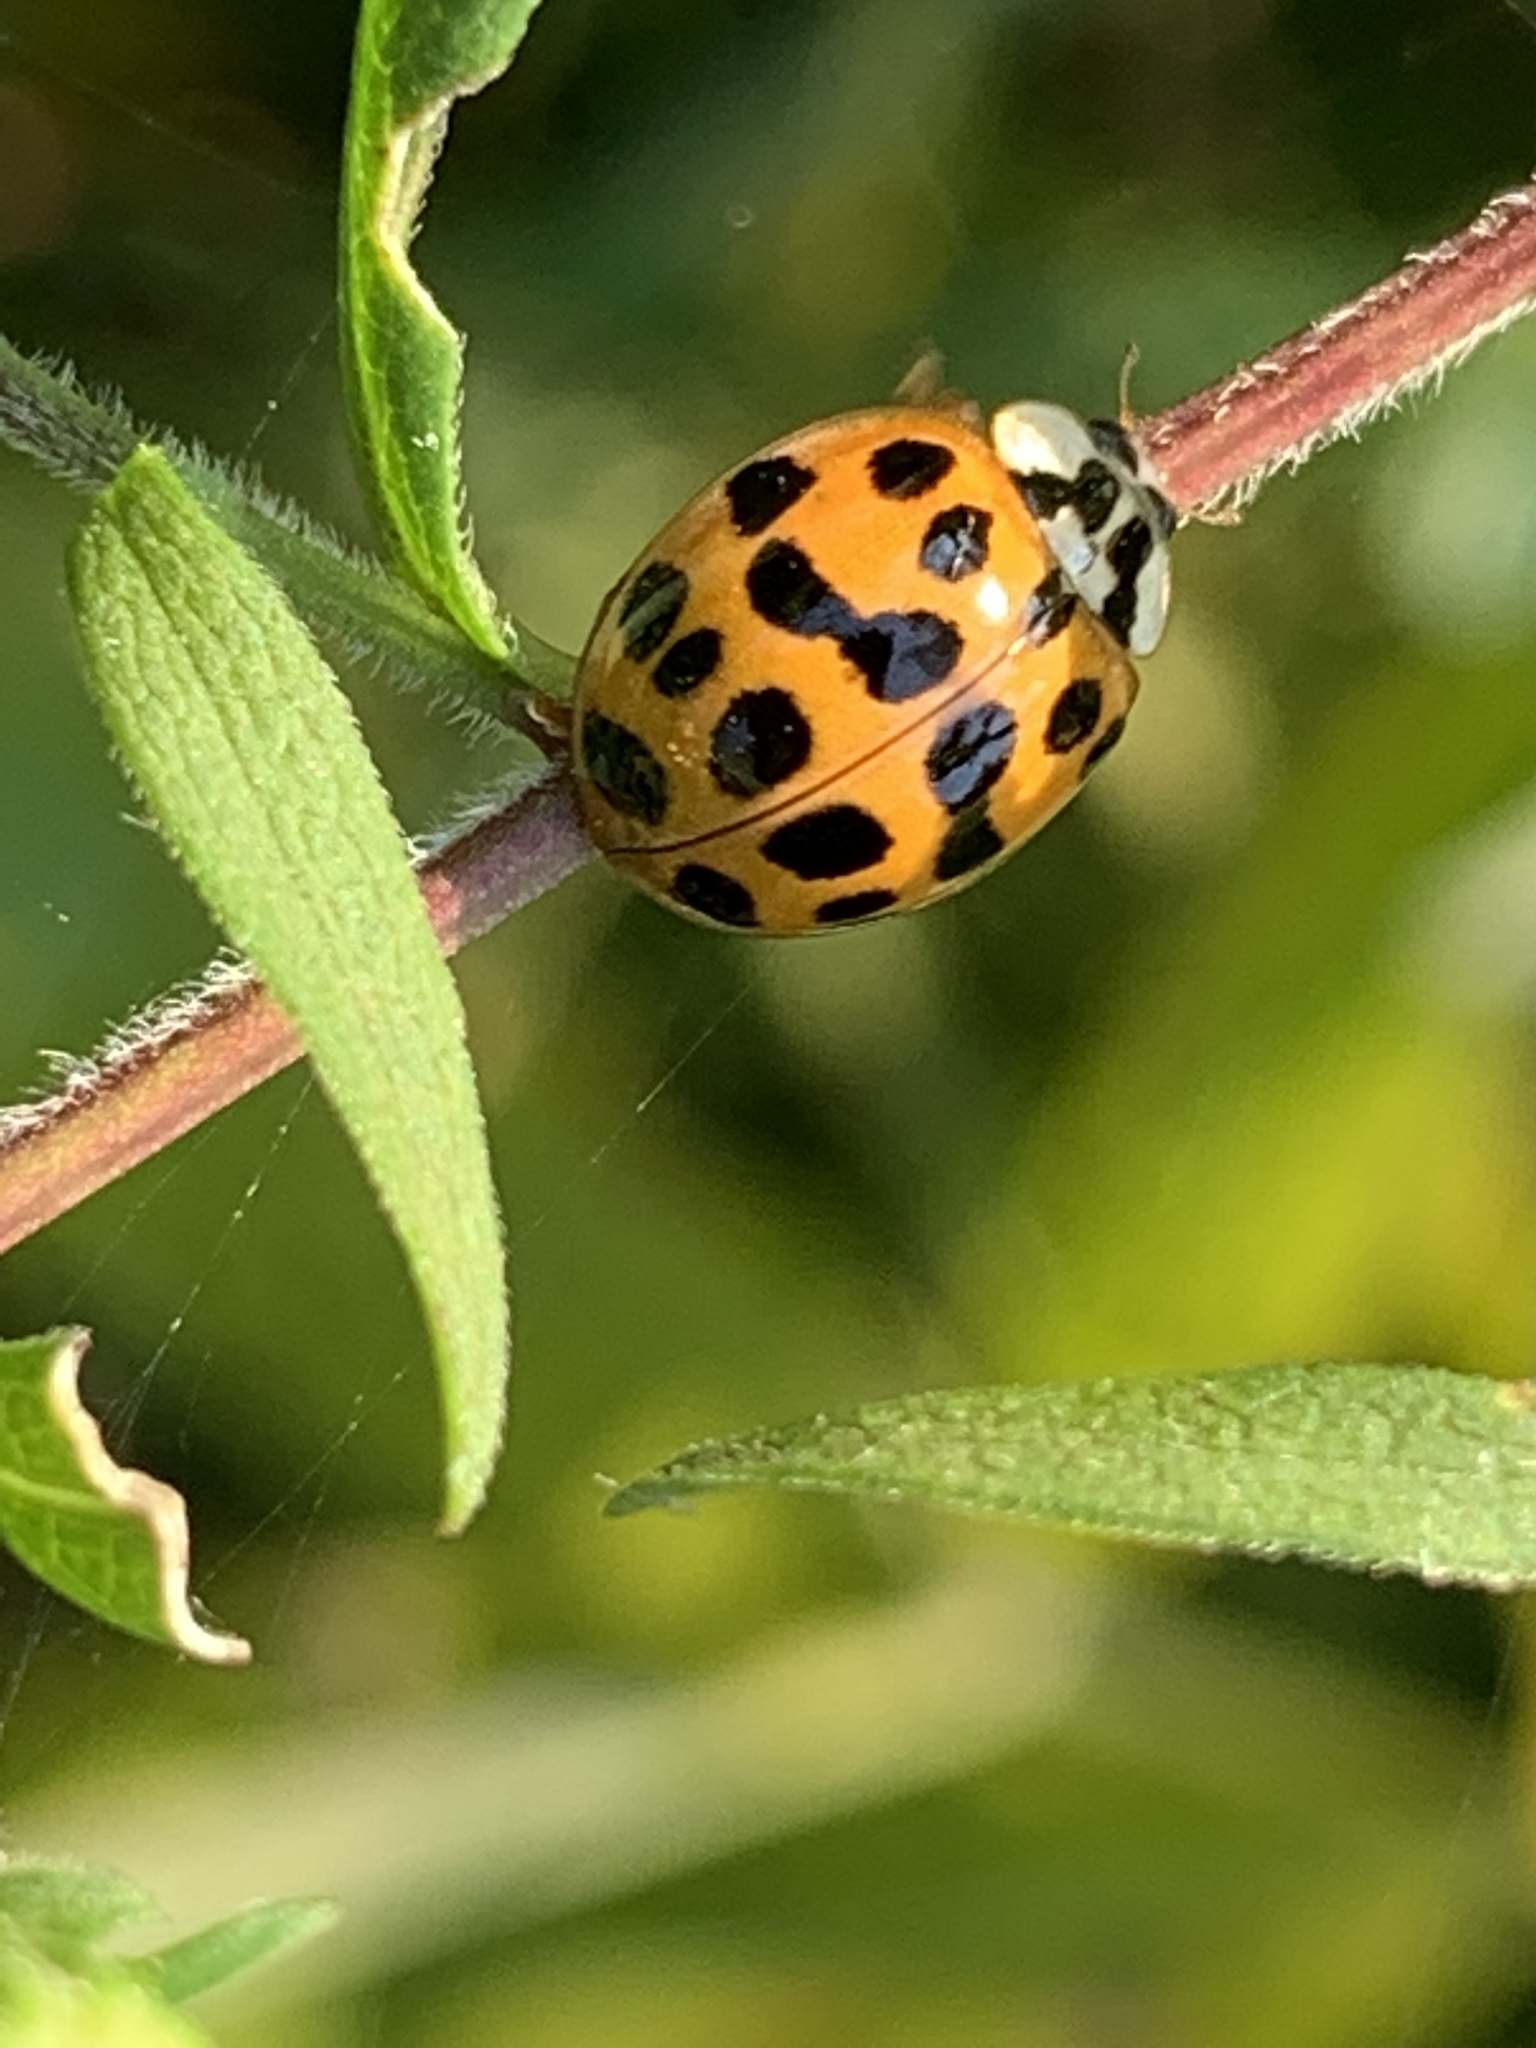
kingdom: Animalia
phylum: Arthropoda
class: Insecta
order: Coleoptera
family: Coccinellidae
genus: Harmonia
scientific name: Harmonia axyridis
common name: Harlequin ladybird
